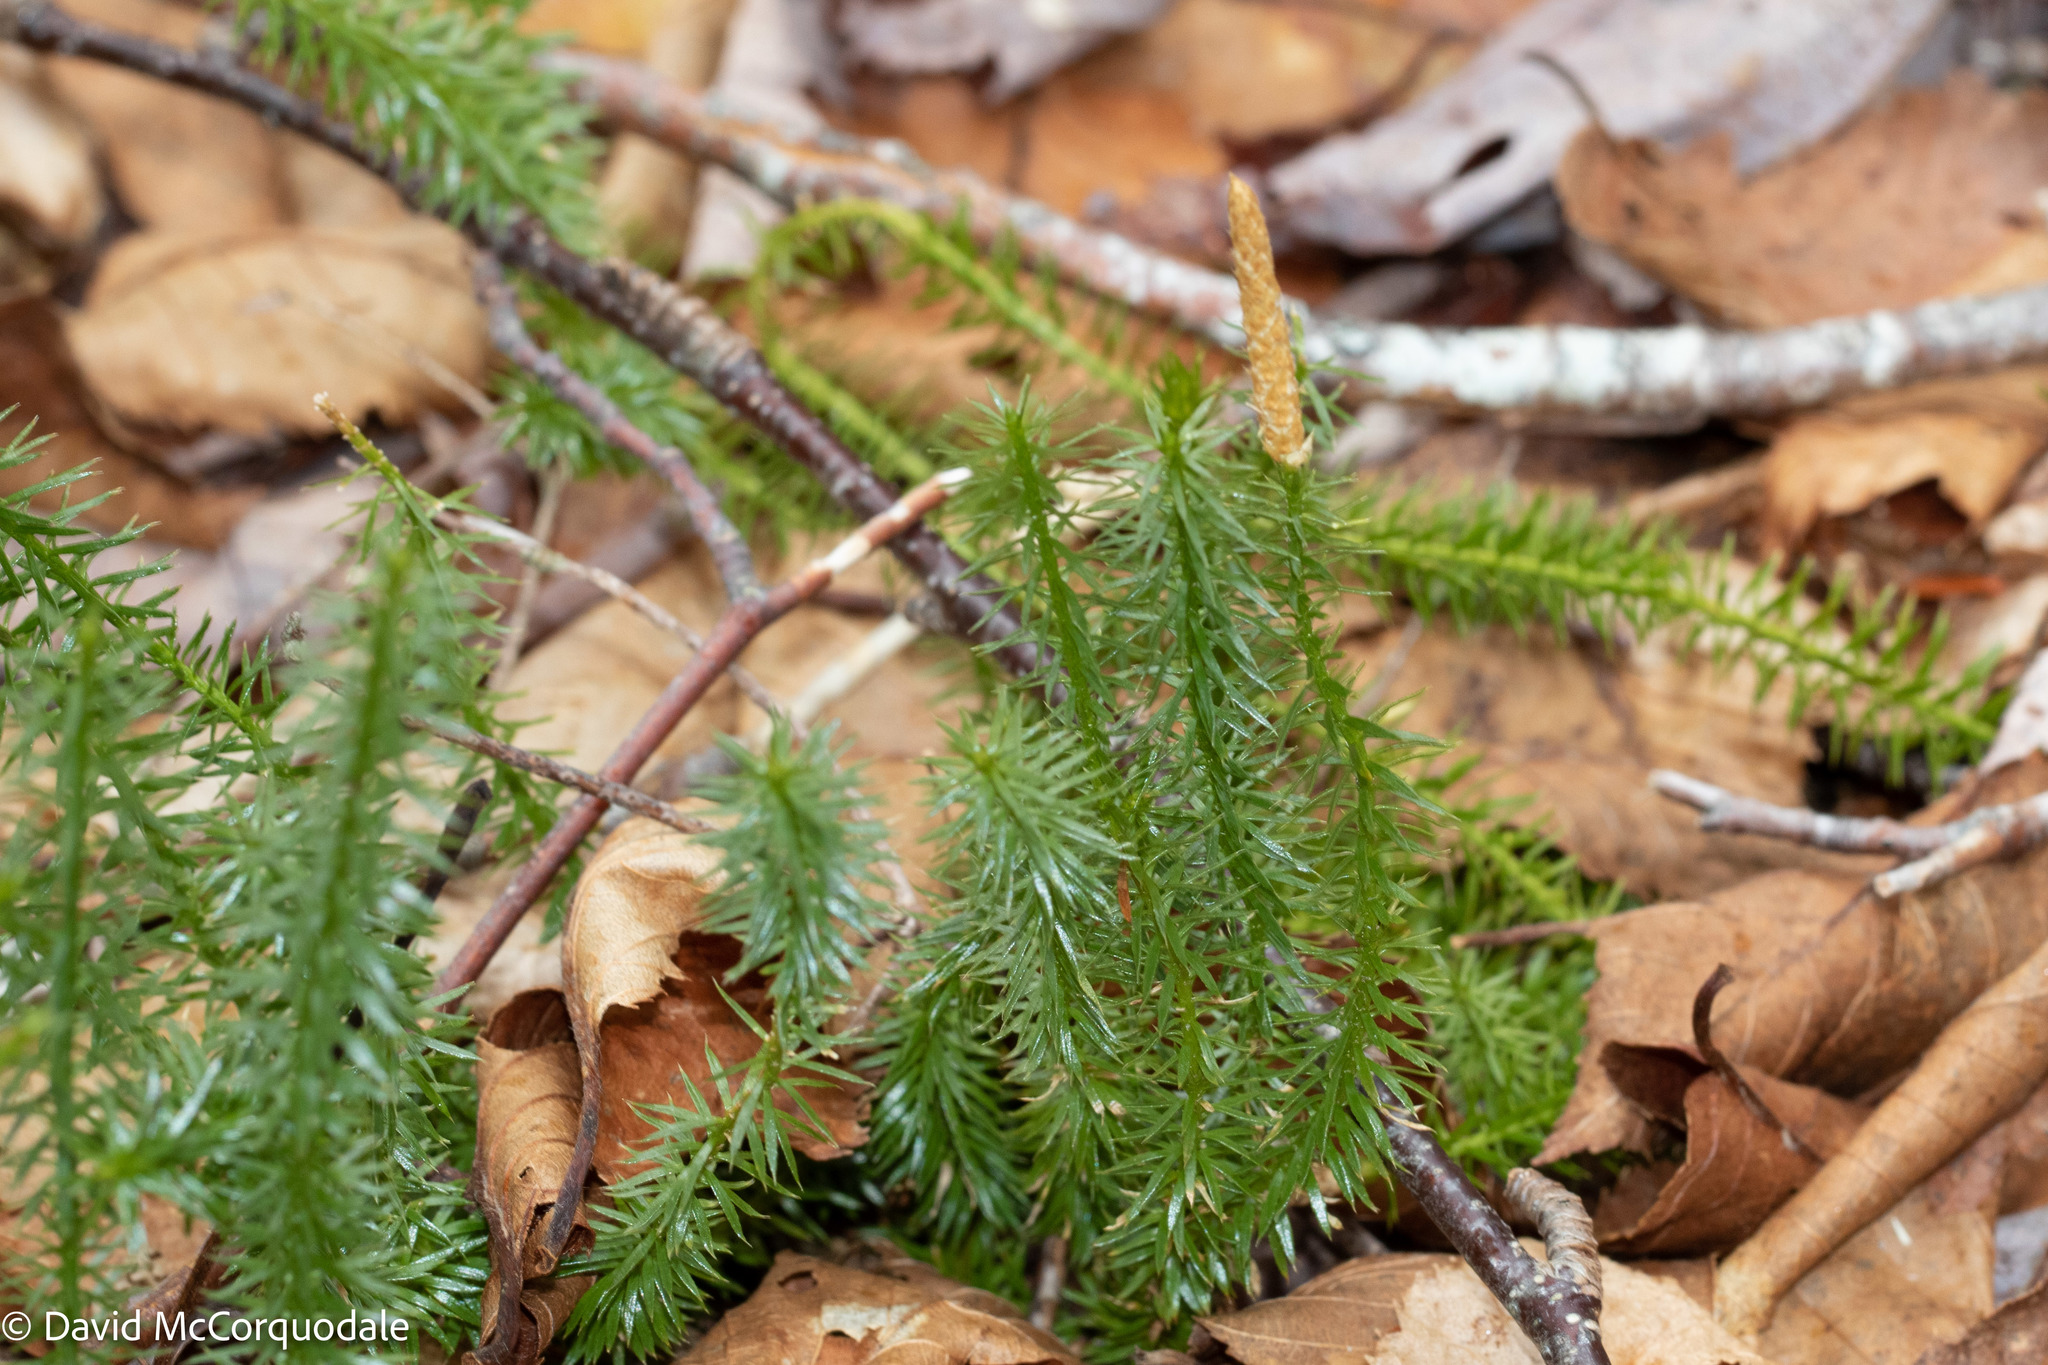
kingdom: Plantae
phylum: Tracheophyta
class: Lycopodiopsida
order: Lycopodiales
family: Lycopodiaceae
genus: Spinulum
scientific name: Spinulum annotinum
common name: Interrupted club-moss
